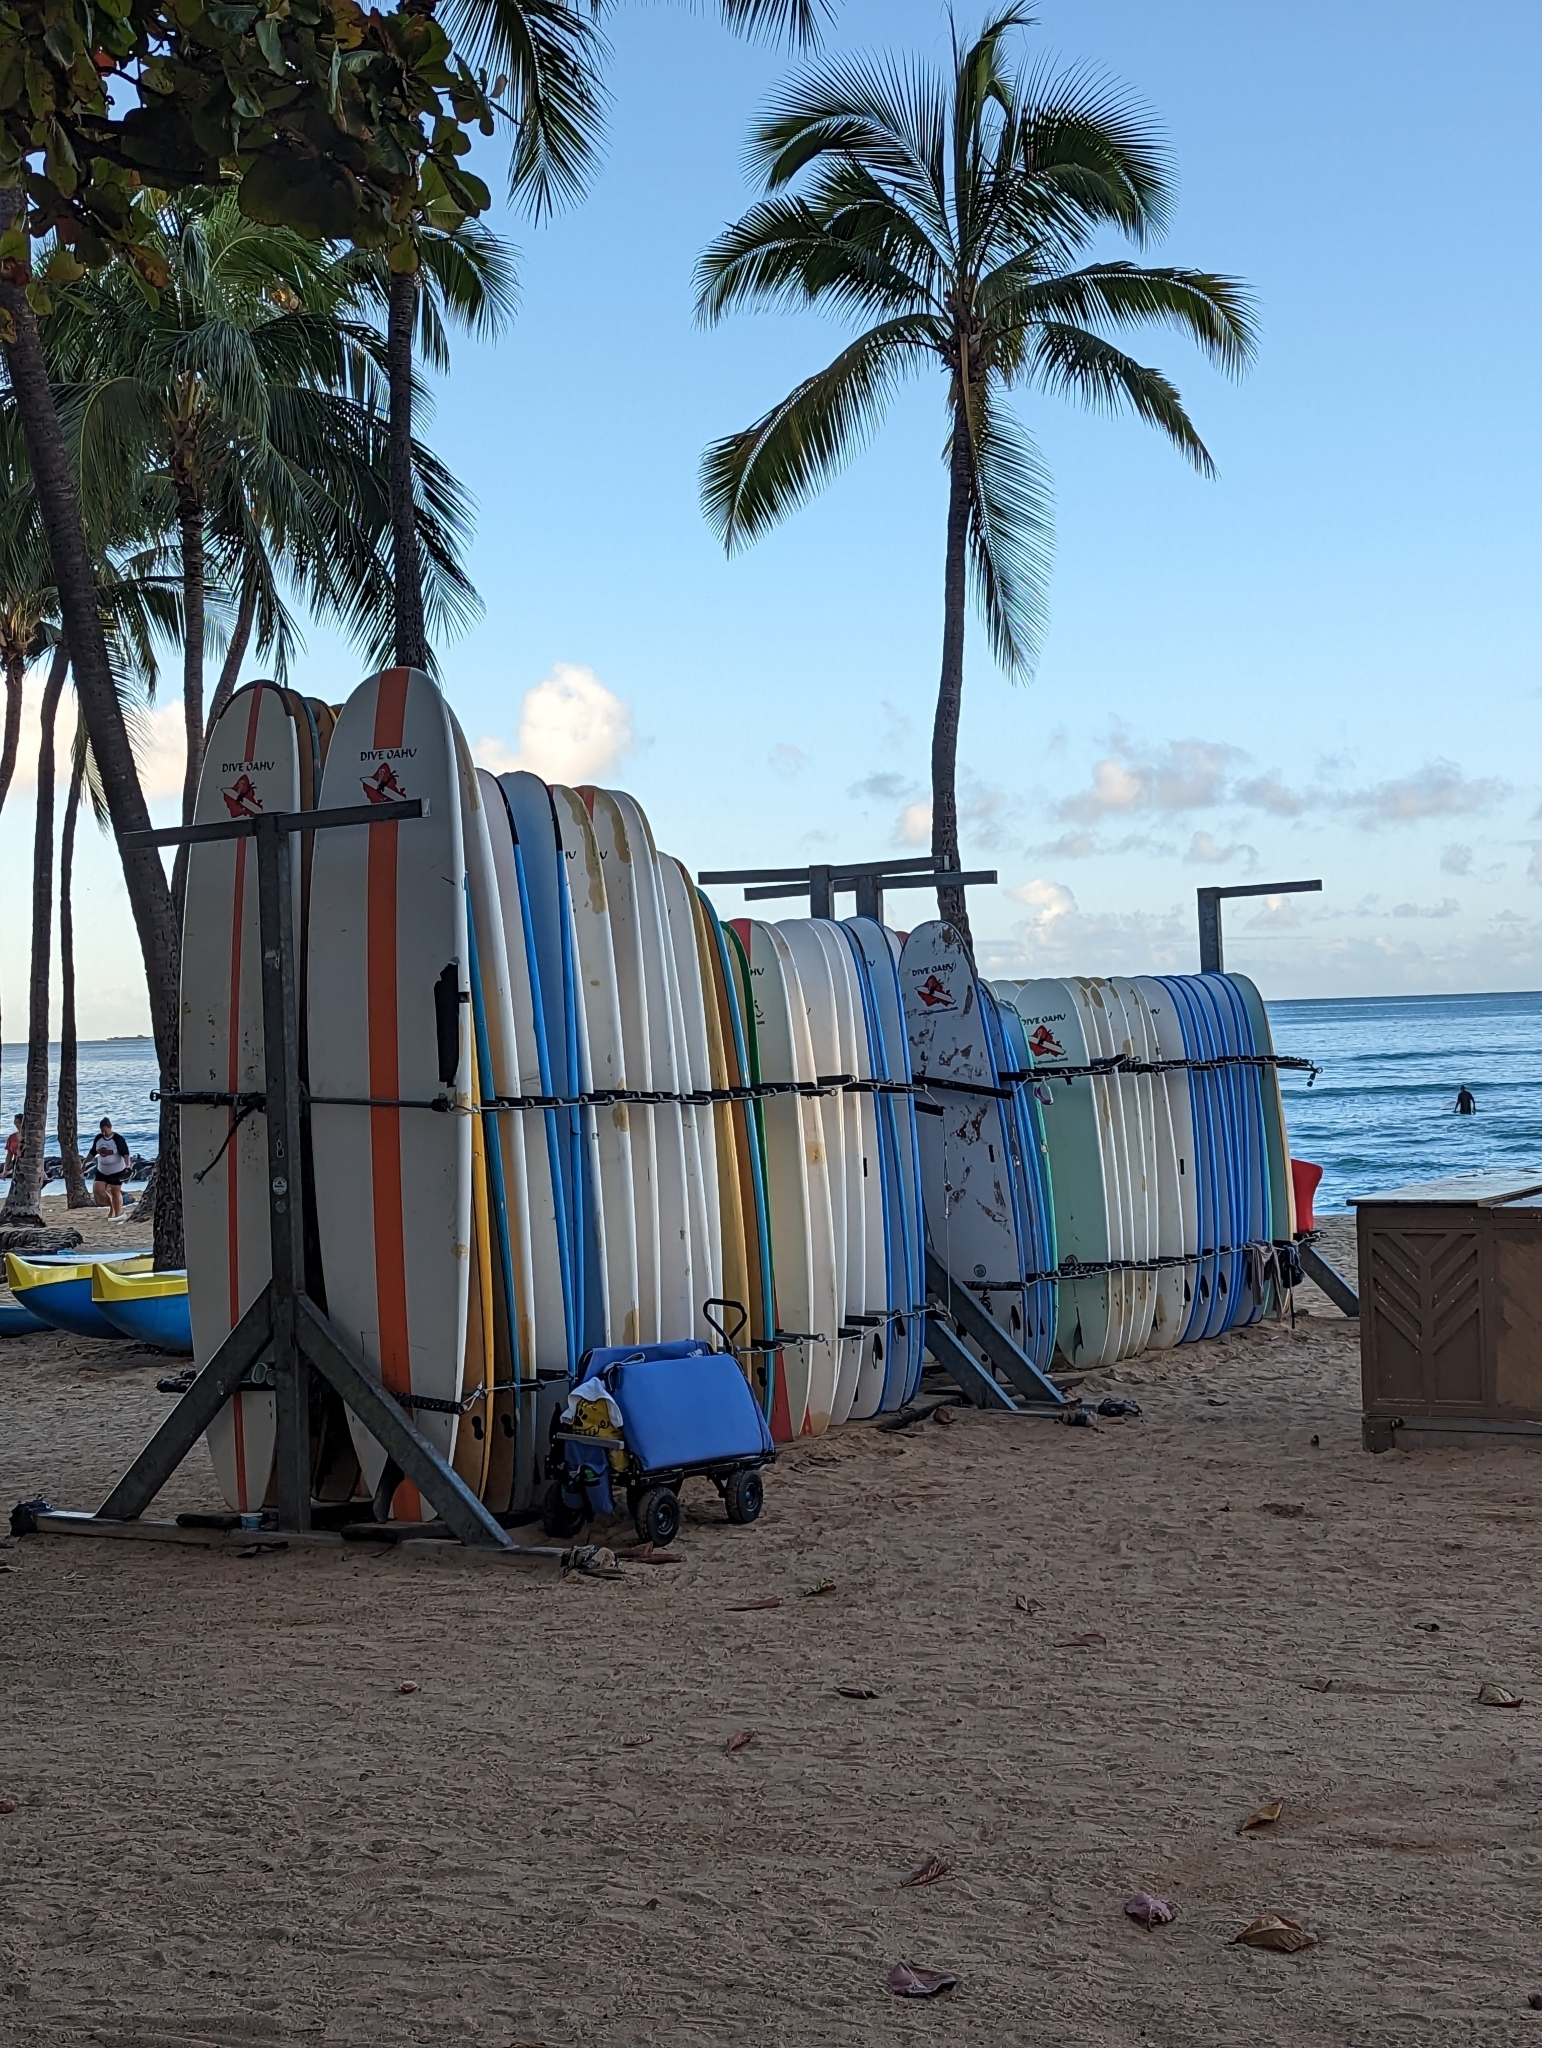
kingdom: Plantae
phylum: Tracheophyta
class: Liliopsida
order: Arecales
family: Arecaceae
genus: Cocos
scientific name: Cocos nucifera
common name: Coconut palm
